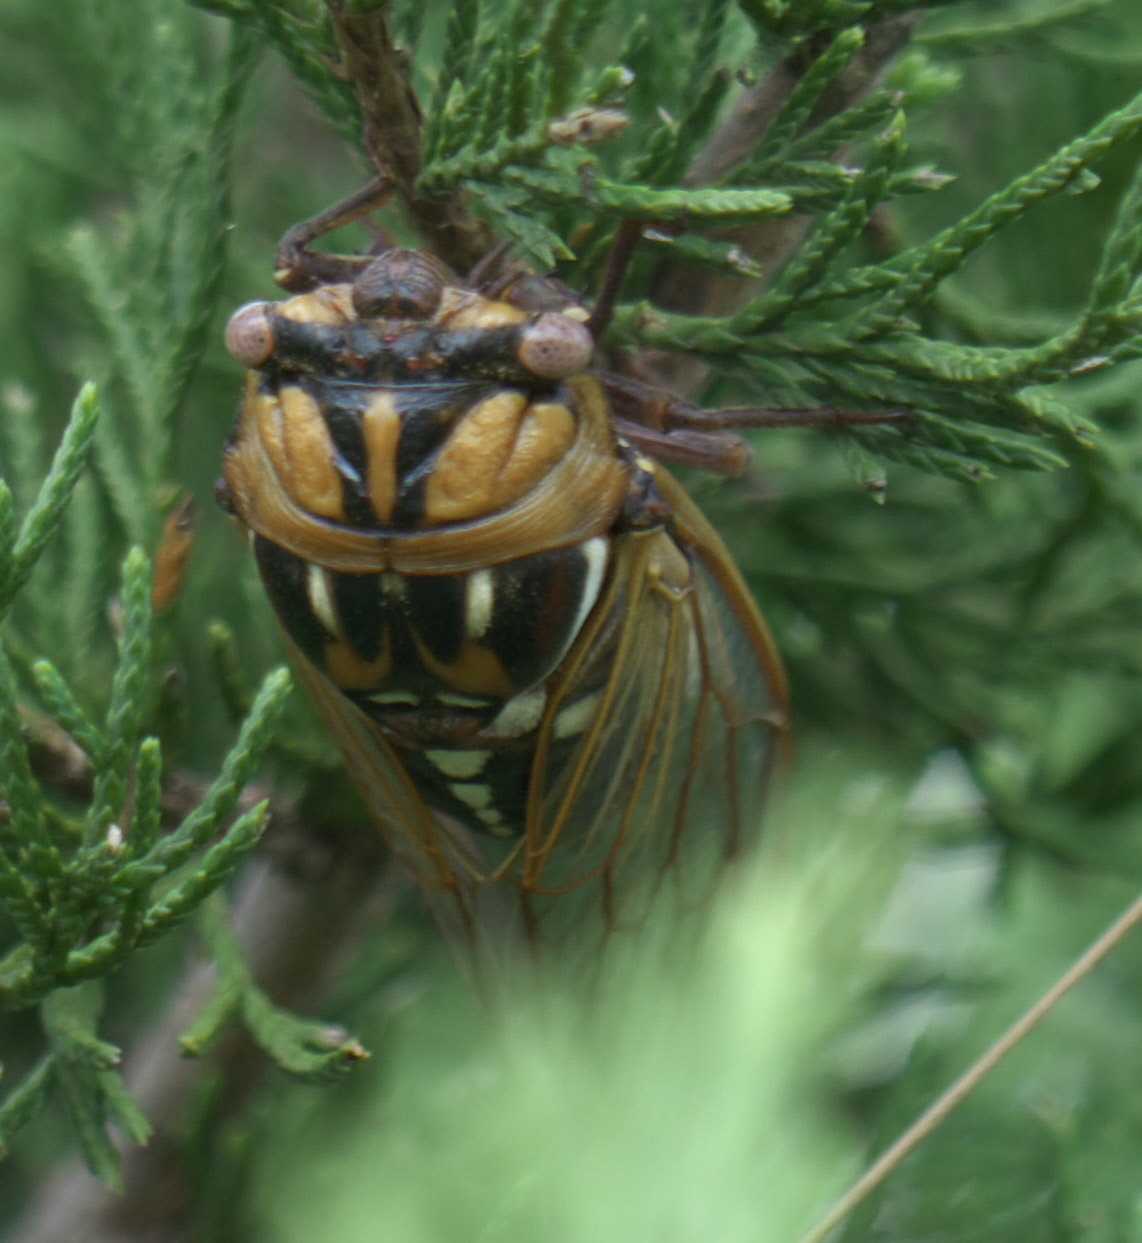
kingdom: Animalia
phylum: Arthropoda
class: Insecta
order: Hemiptera
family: Cicadidae
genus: Megatibicen
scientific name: Megatibicen dorsatus
